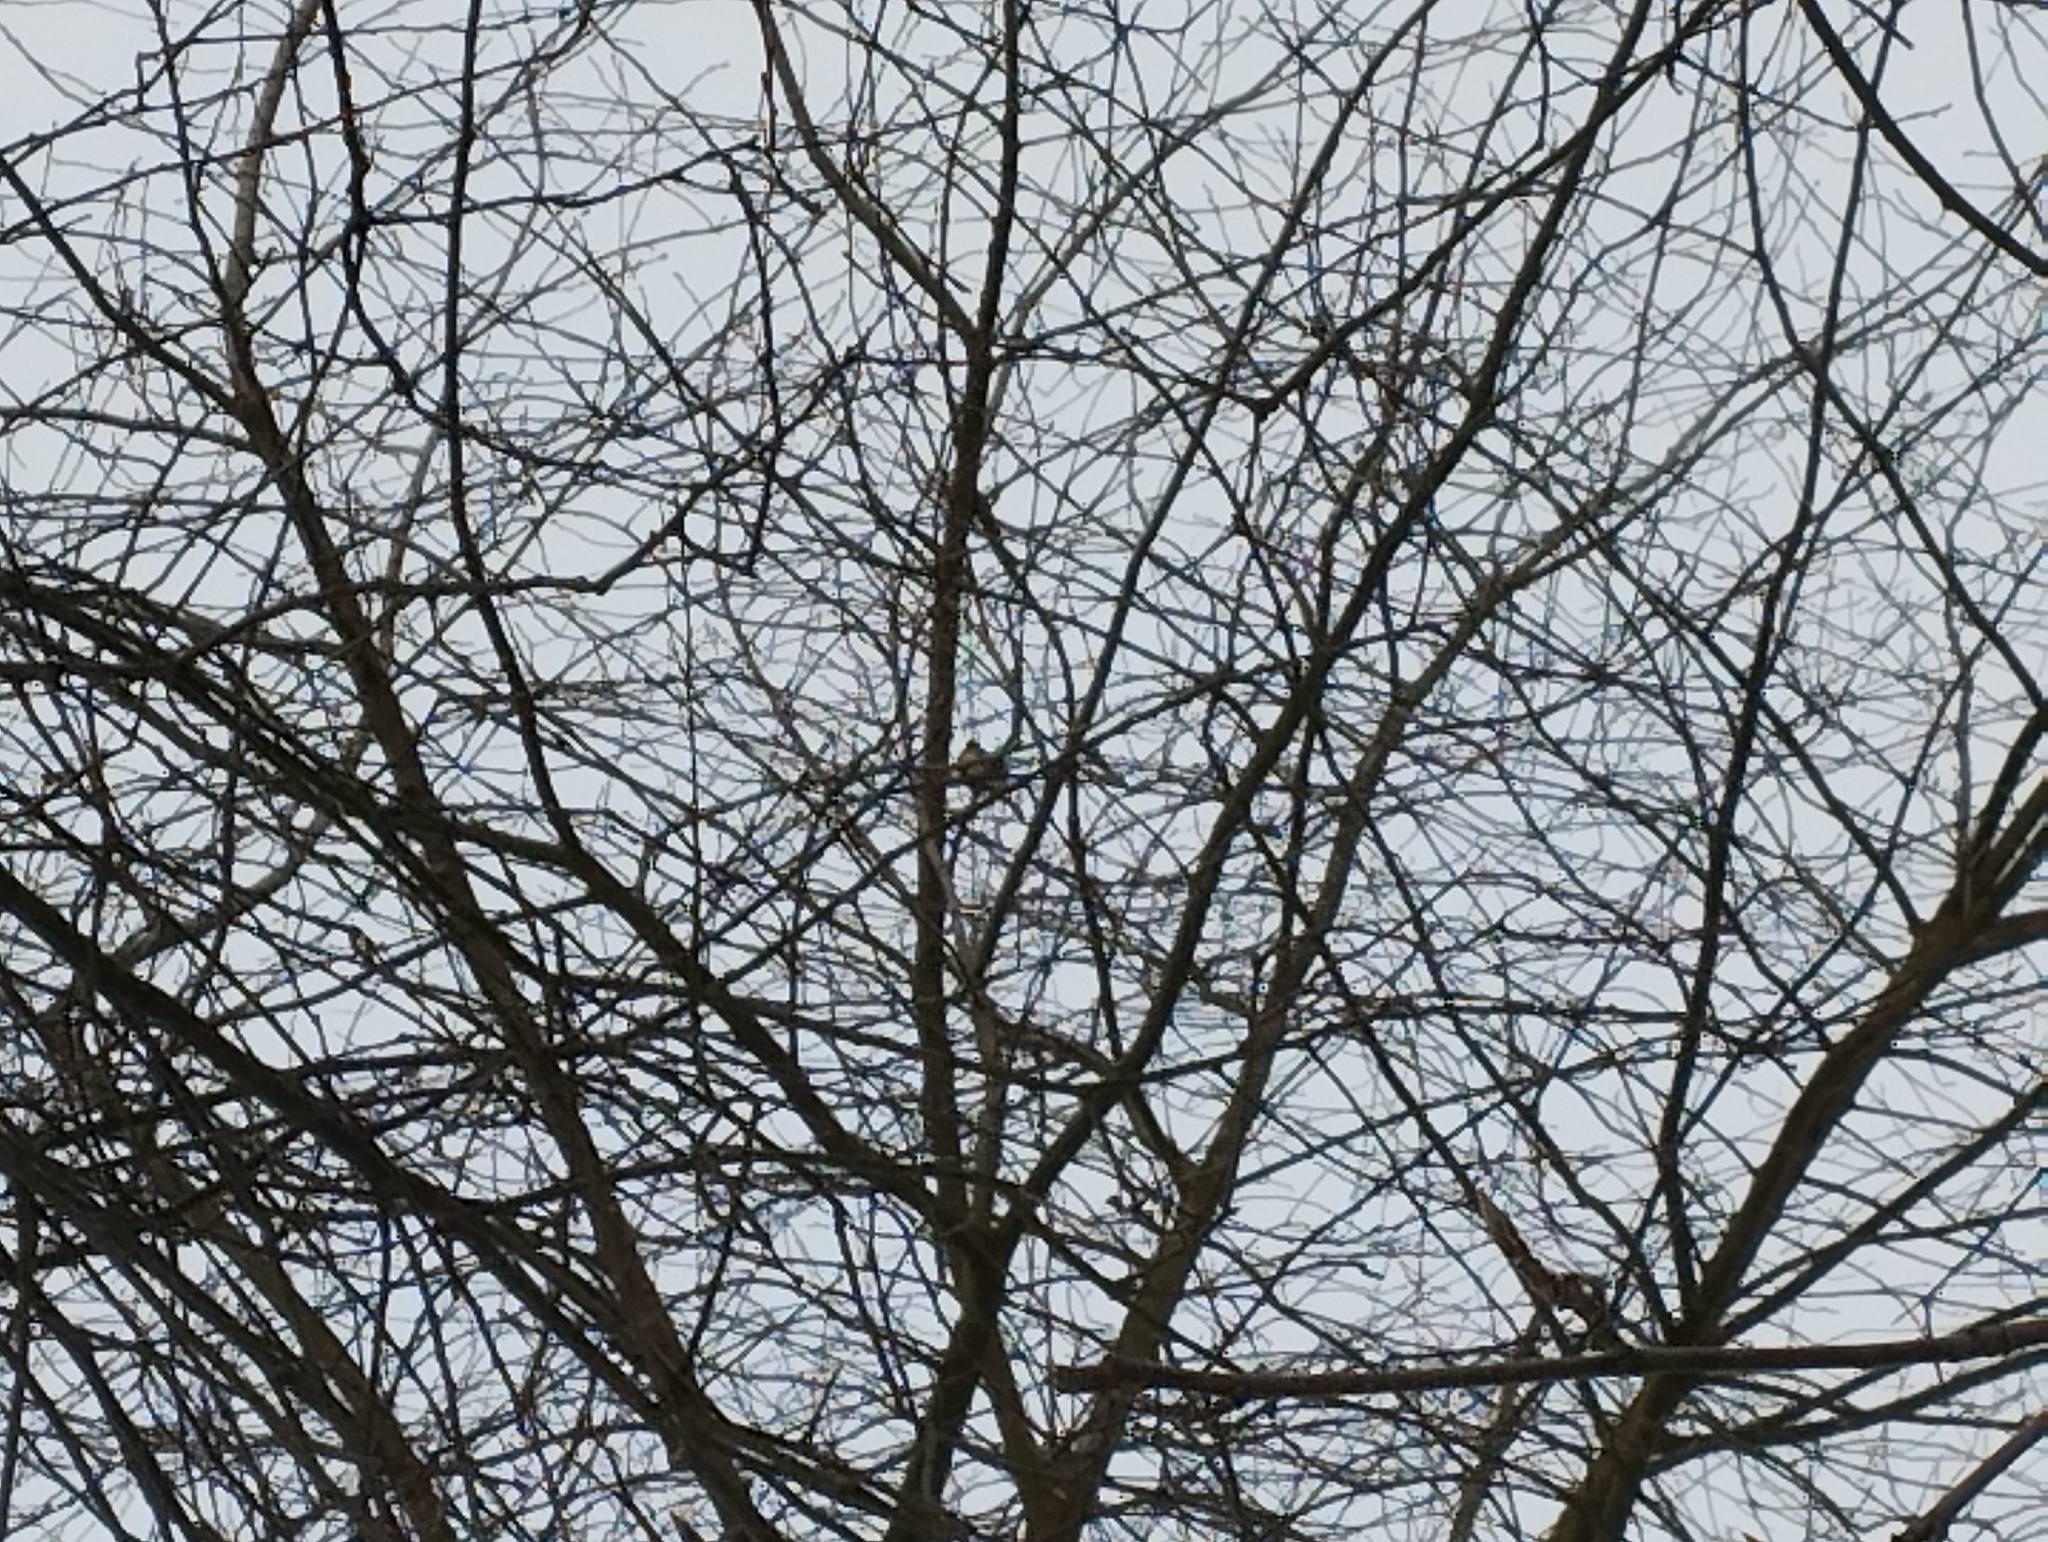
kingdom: Animalia
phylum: Chordata
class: Aves
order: Passeriformes
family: Paridae
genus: Parus
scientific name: Parus major
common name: Great tit
